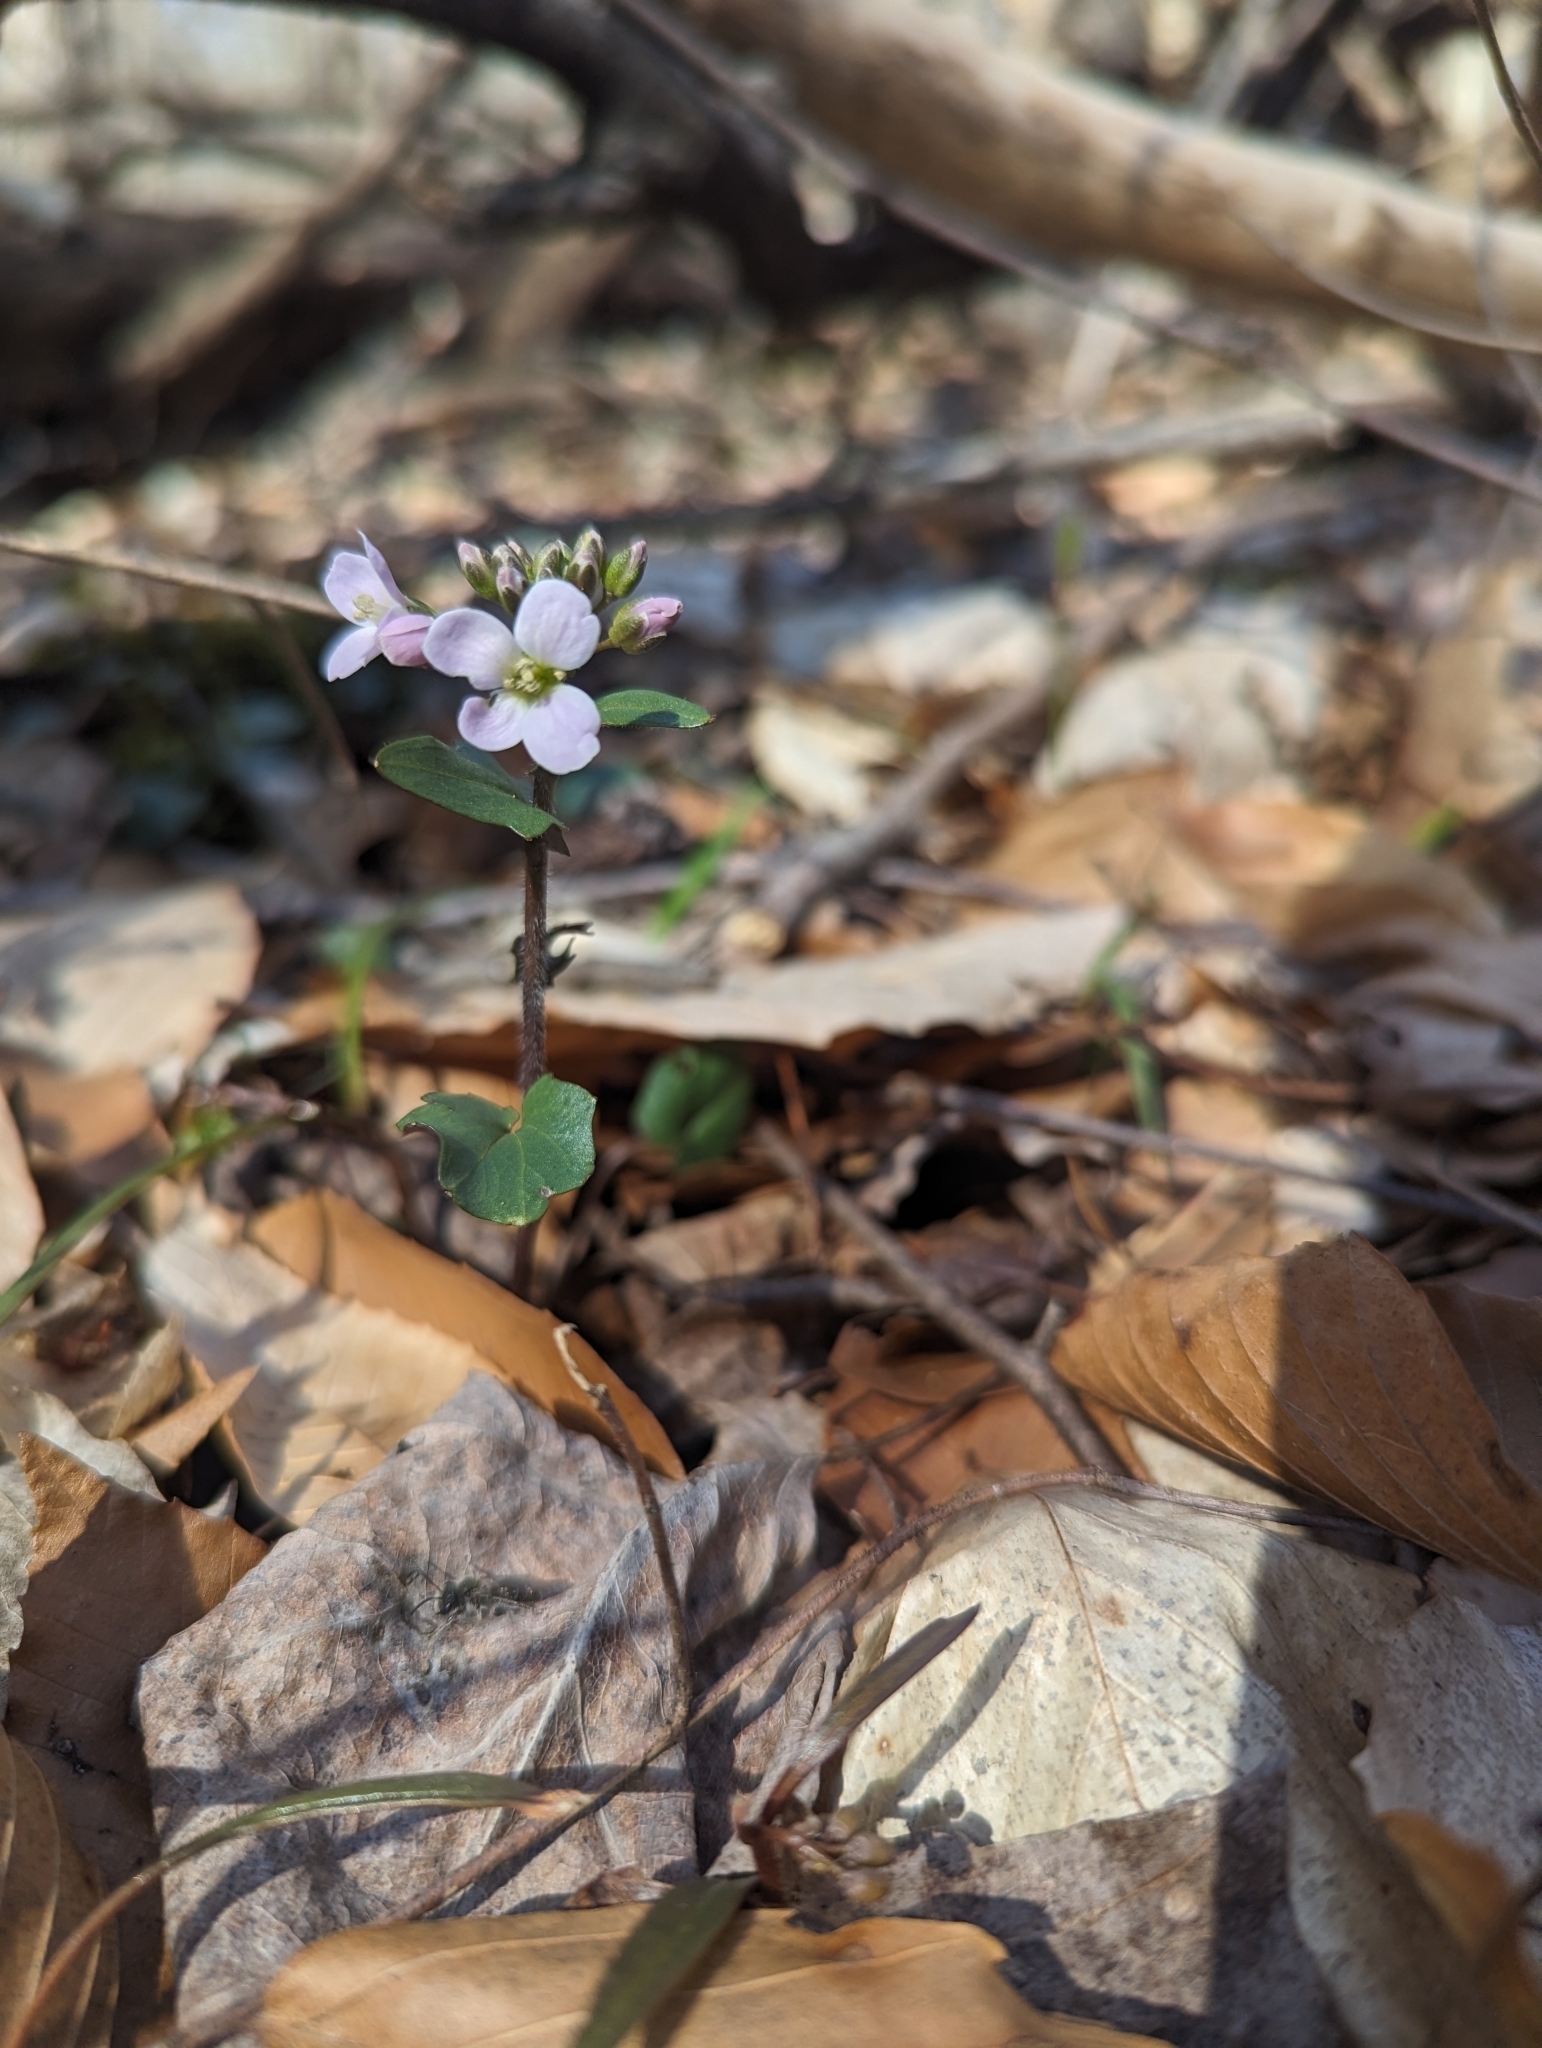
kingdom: Plantae
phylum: Tracheophyta
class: Magnoliopsida
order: Brassicales
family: Brassicaceae
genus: Cardamine
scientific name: Cardamine douglassii
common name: Purple cress
